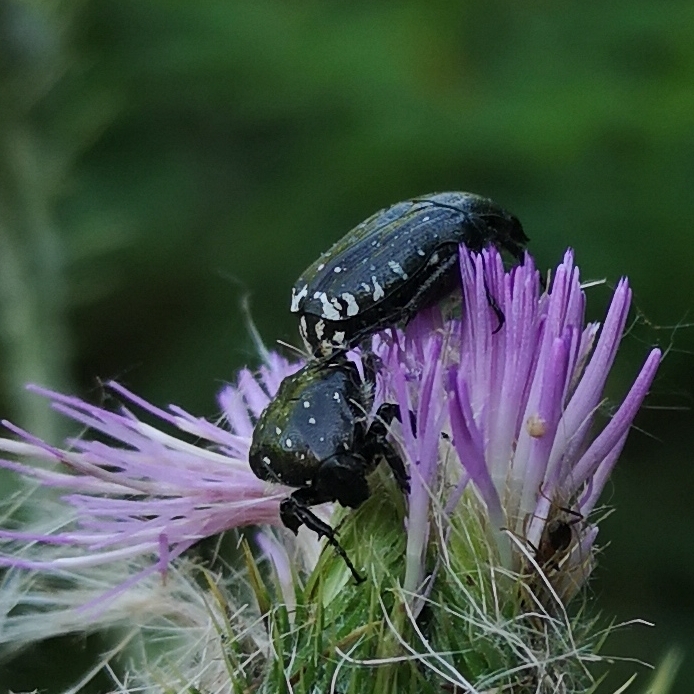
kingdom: Animalia
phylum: Arthropoda
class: Insecta
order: Coleoptera
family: Scarabaeidae
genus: Oxythyrea
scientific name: Oxythyrea funesta
